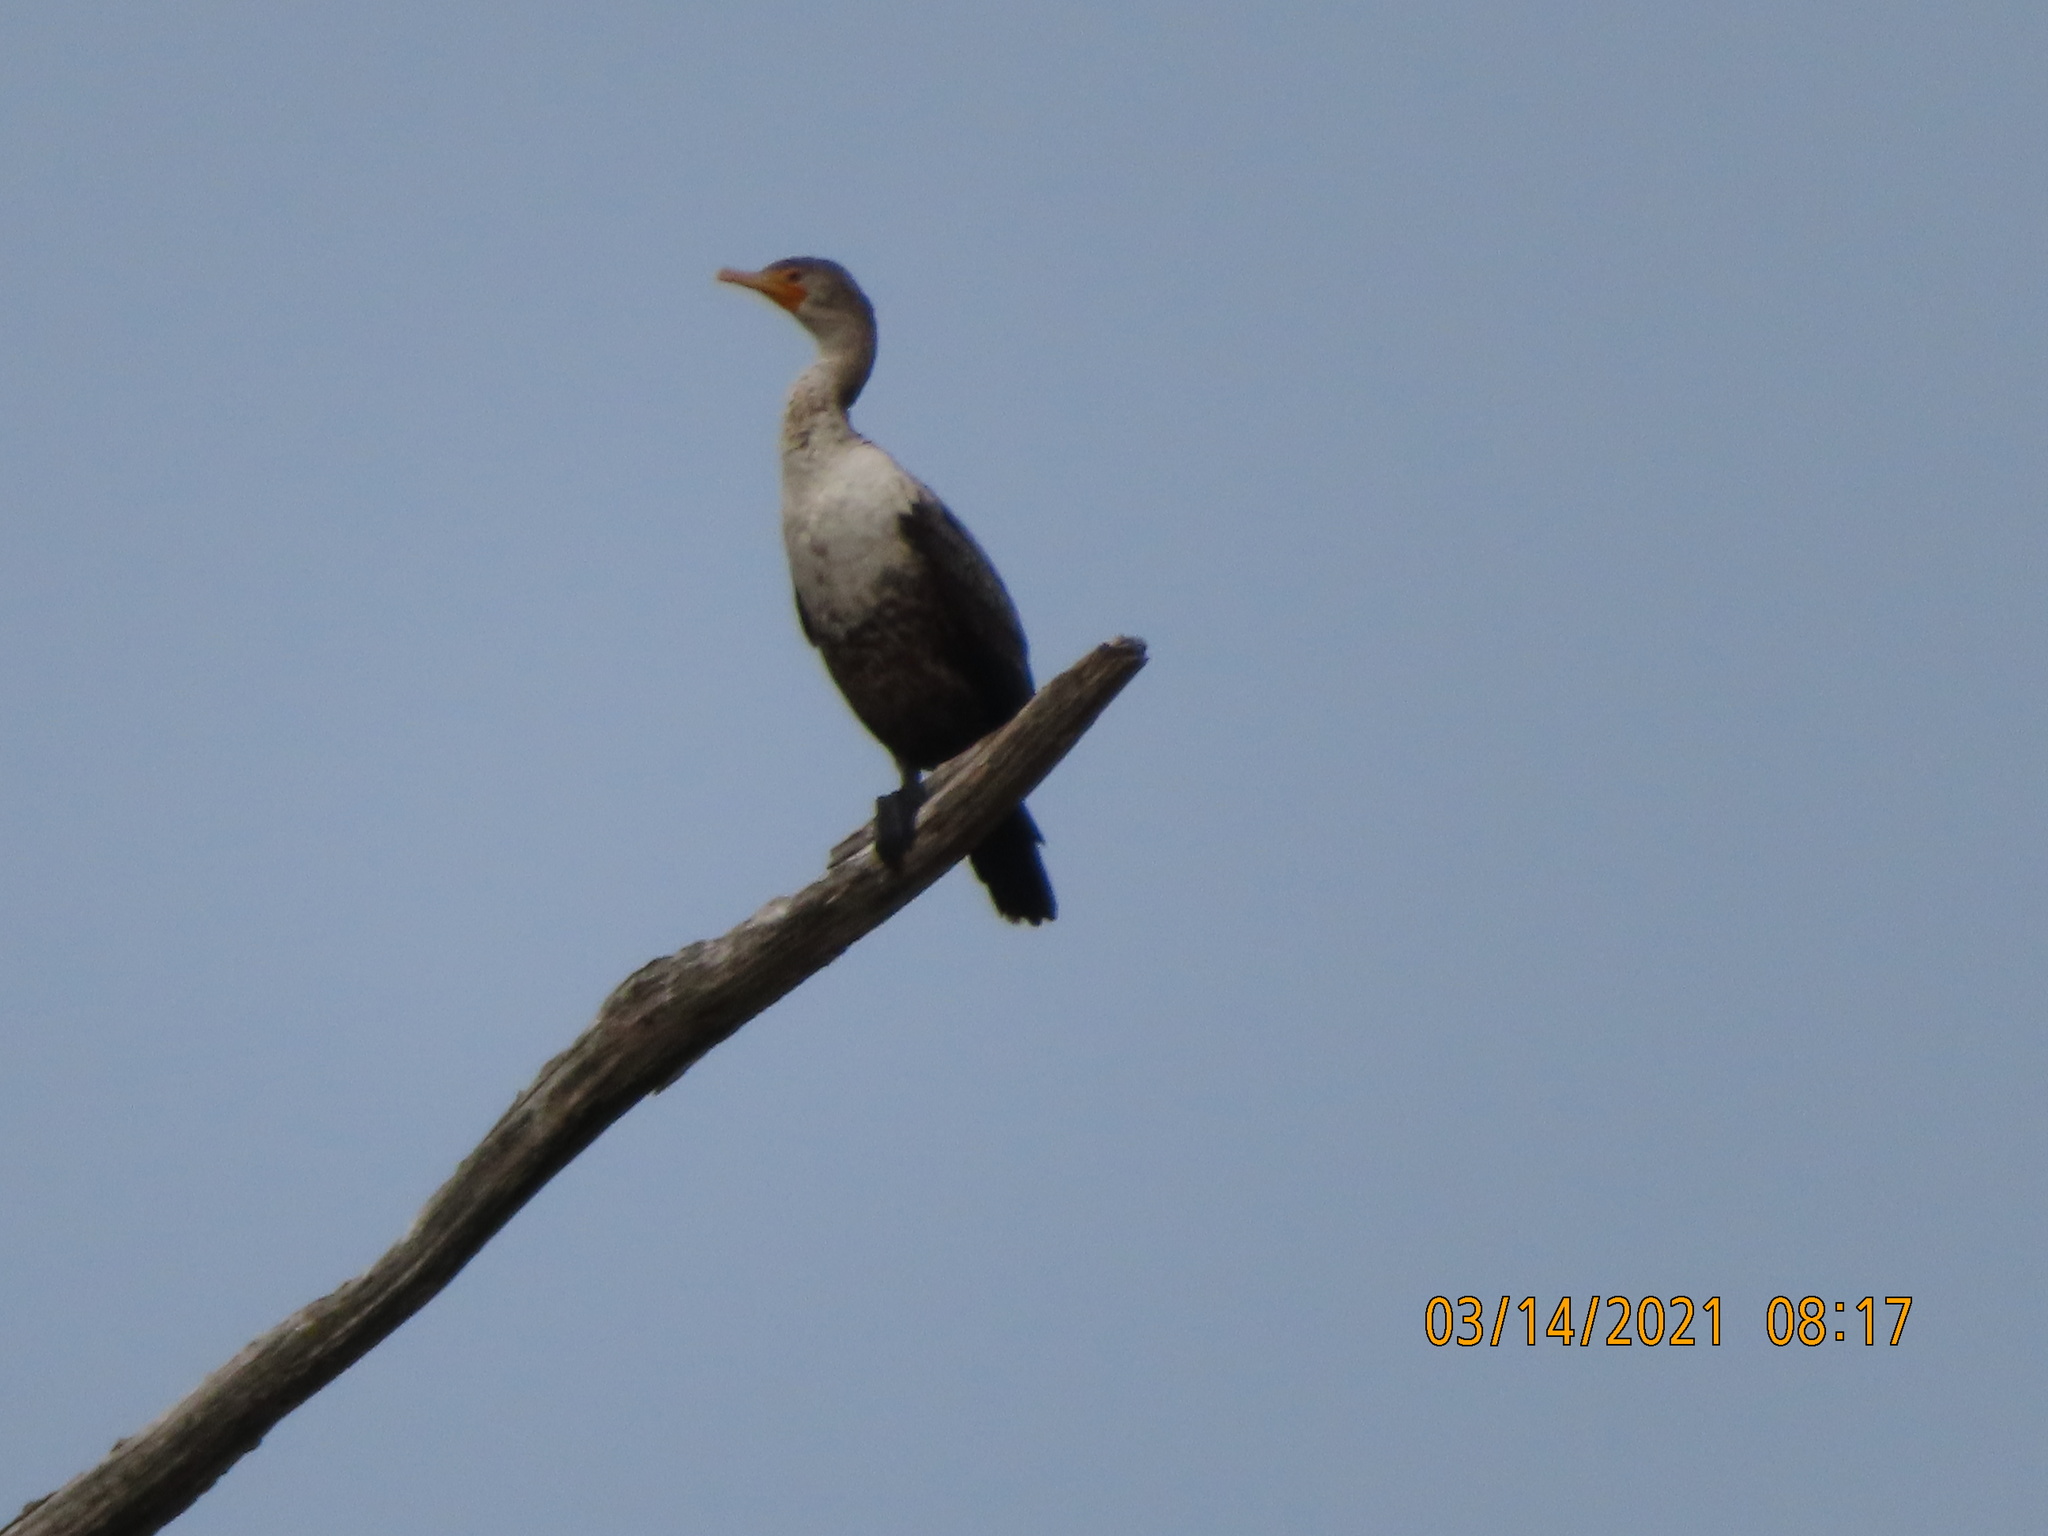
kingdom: Animalia
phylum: Chordata
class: Aves
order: Suliformes
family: Phalacrocoracidae
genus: Phalacrocorax
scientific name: Phalacrocorax auritus
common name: Double-crested cormorant
